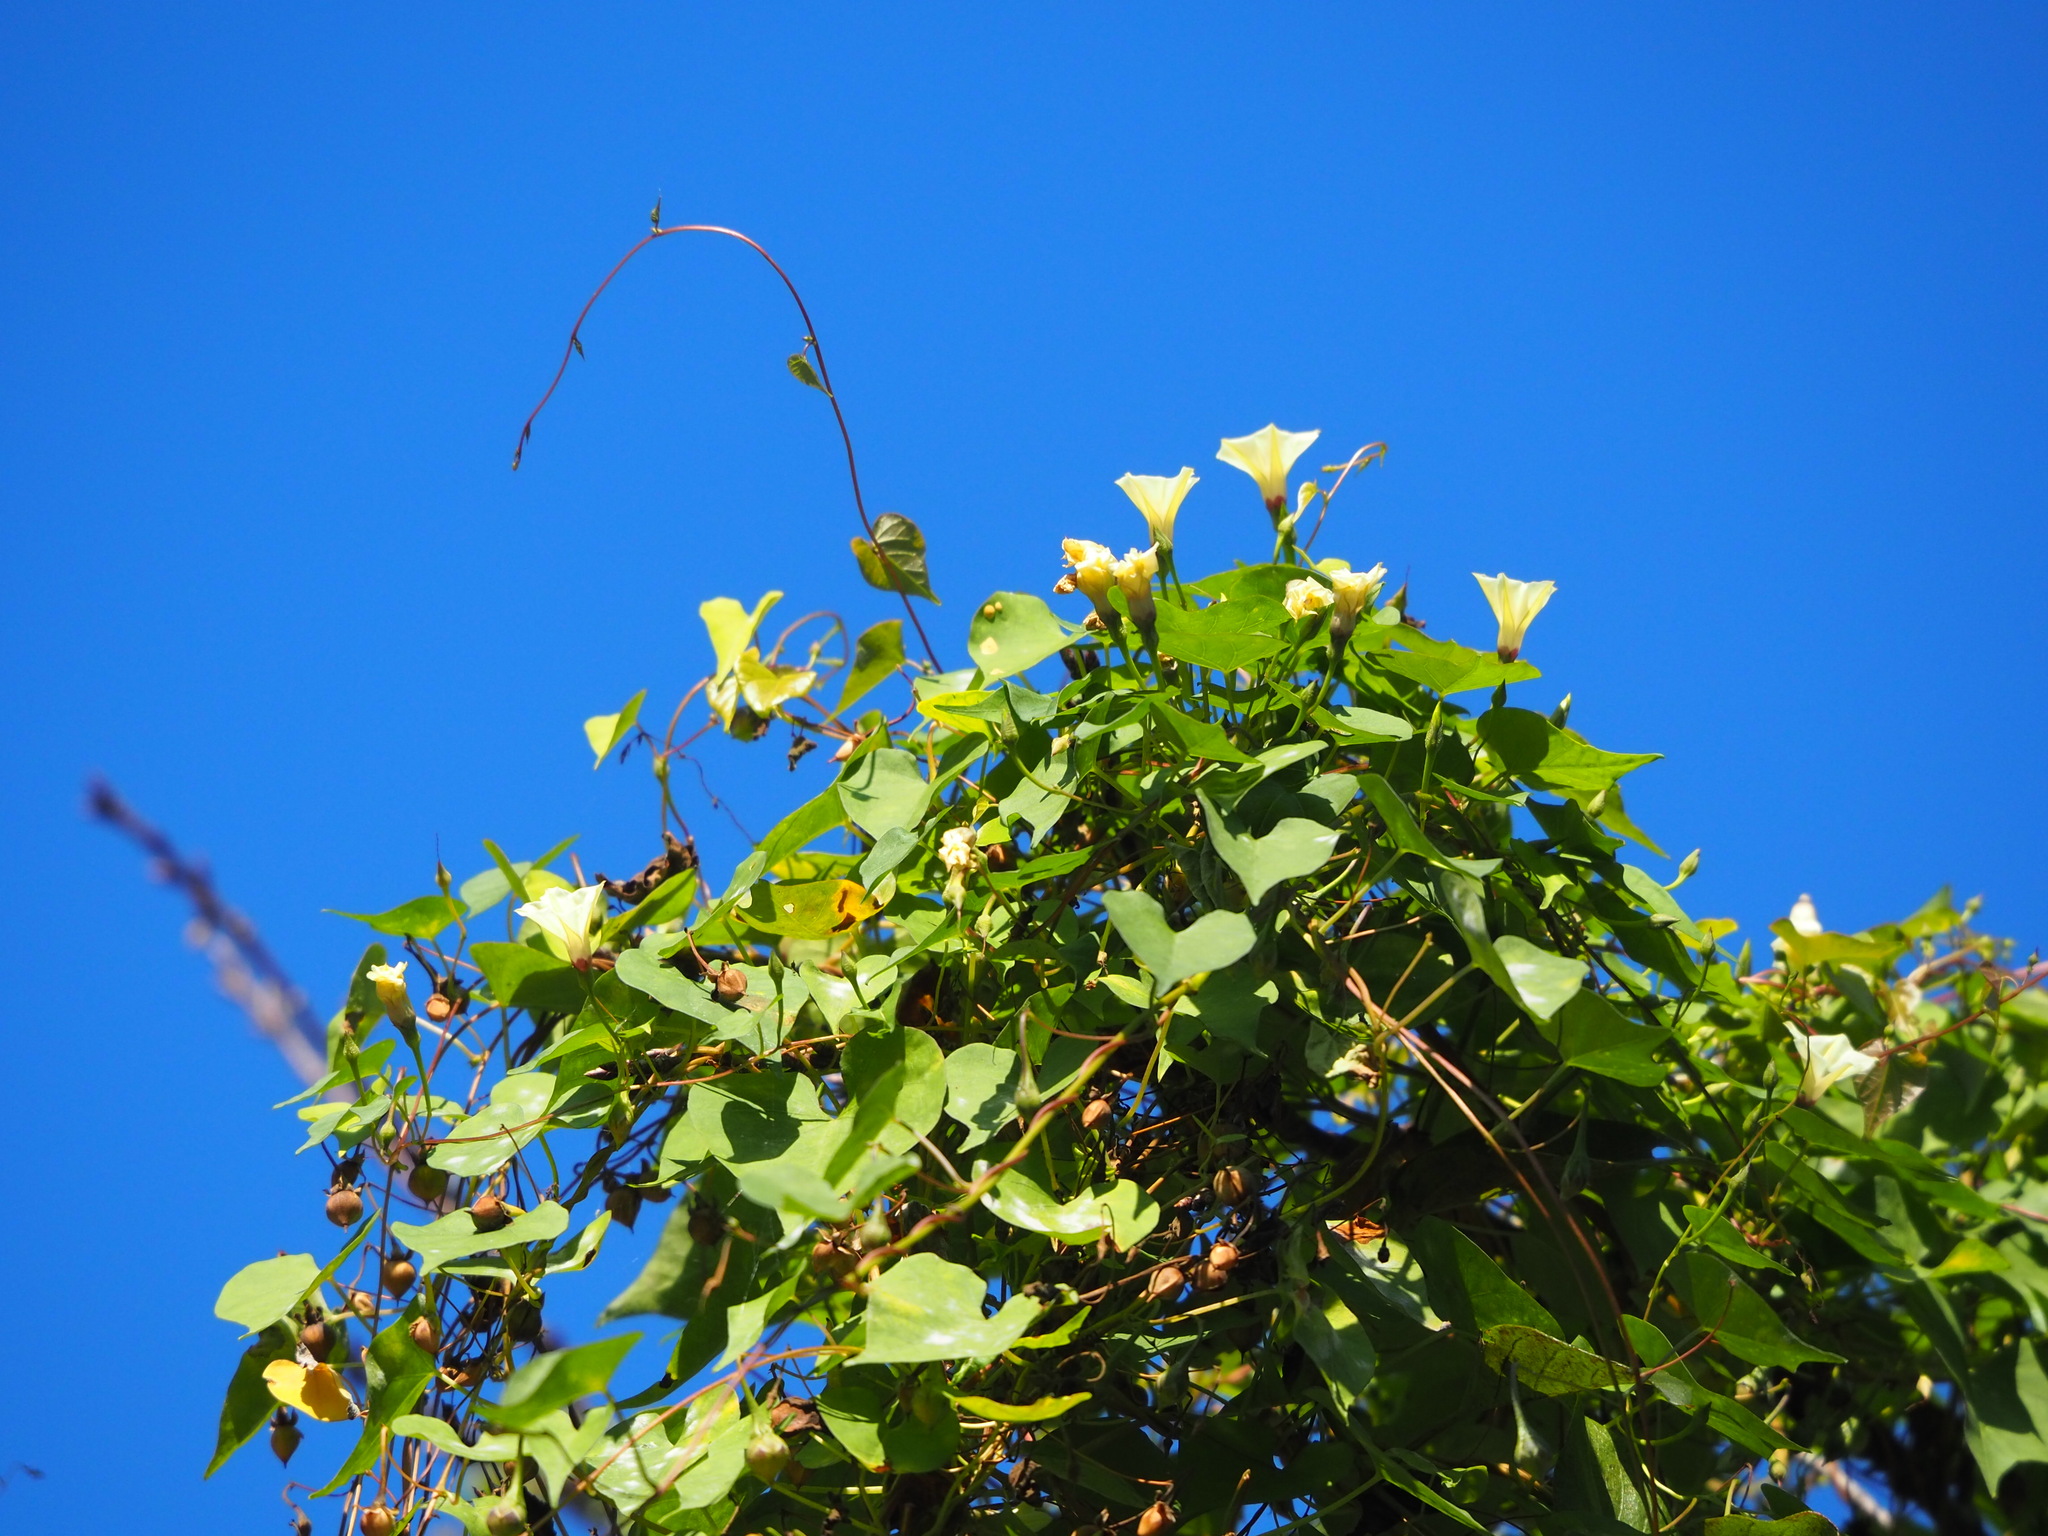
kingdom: Plantae
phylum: Tracheophyta
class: Magnoliopsida
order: Solanales
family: Convolvulaceae
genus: Ipomoea
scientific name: Ipomoea obscura
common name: Obscure morning-glory
